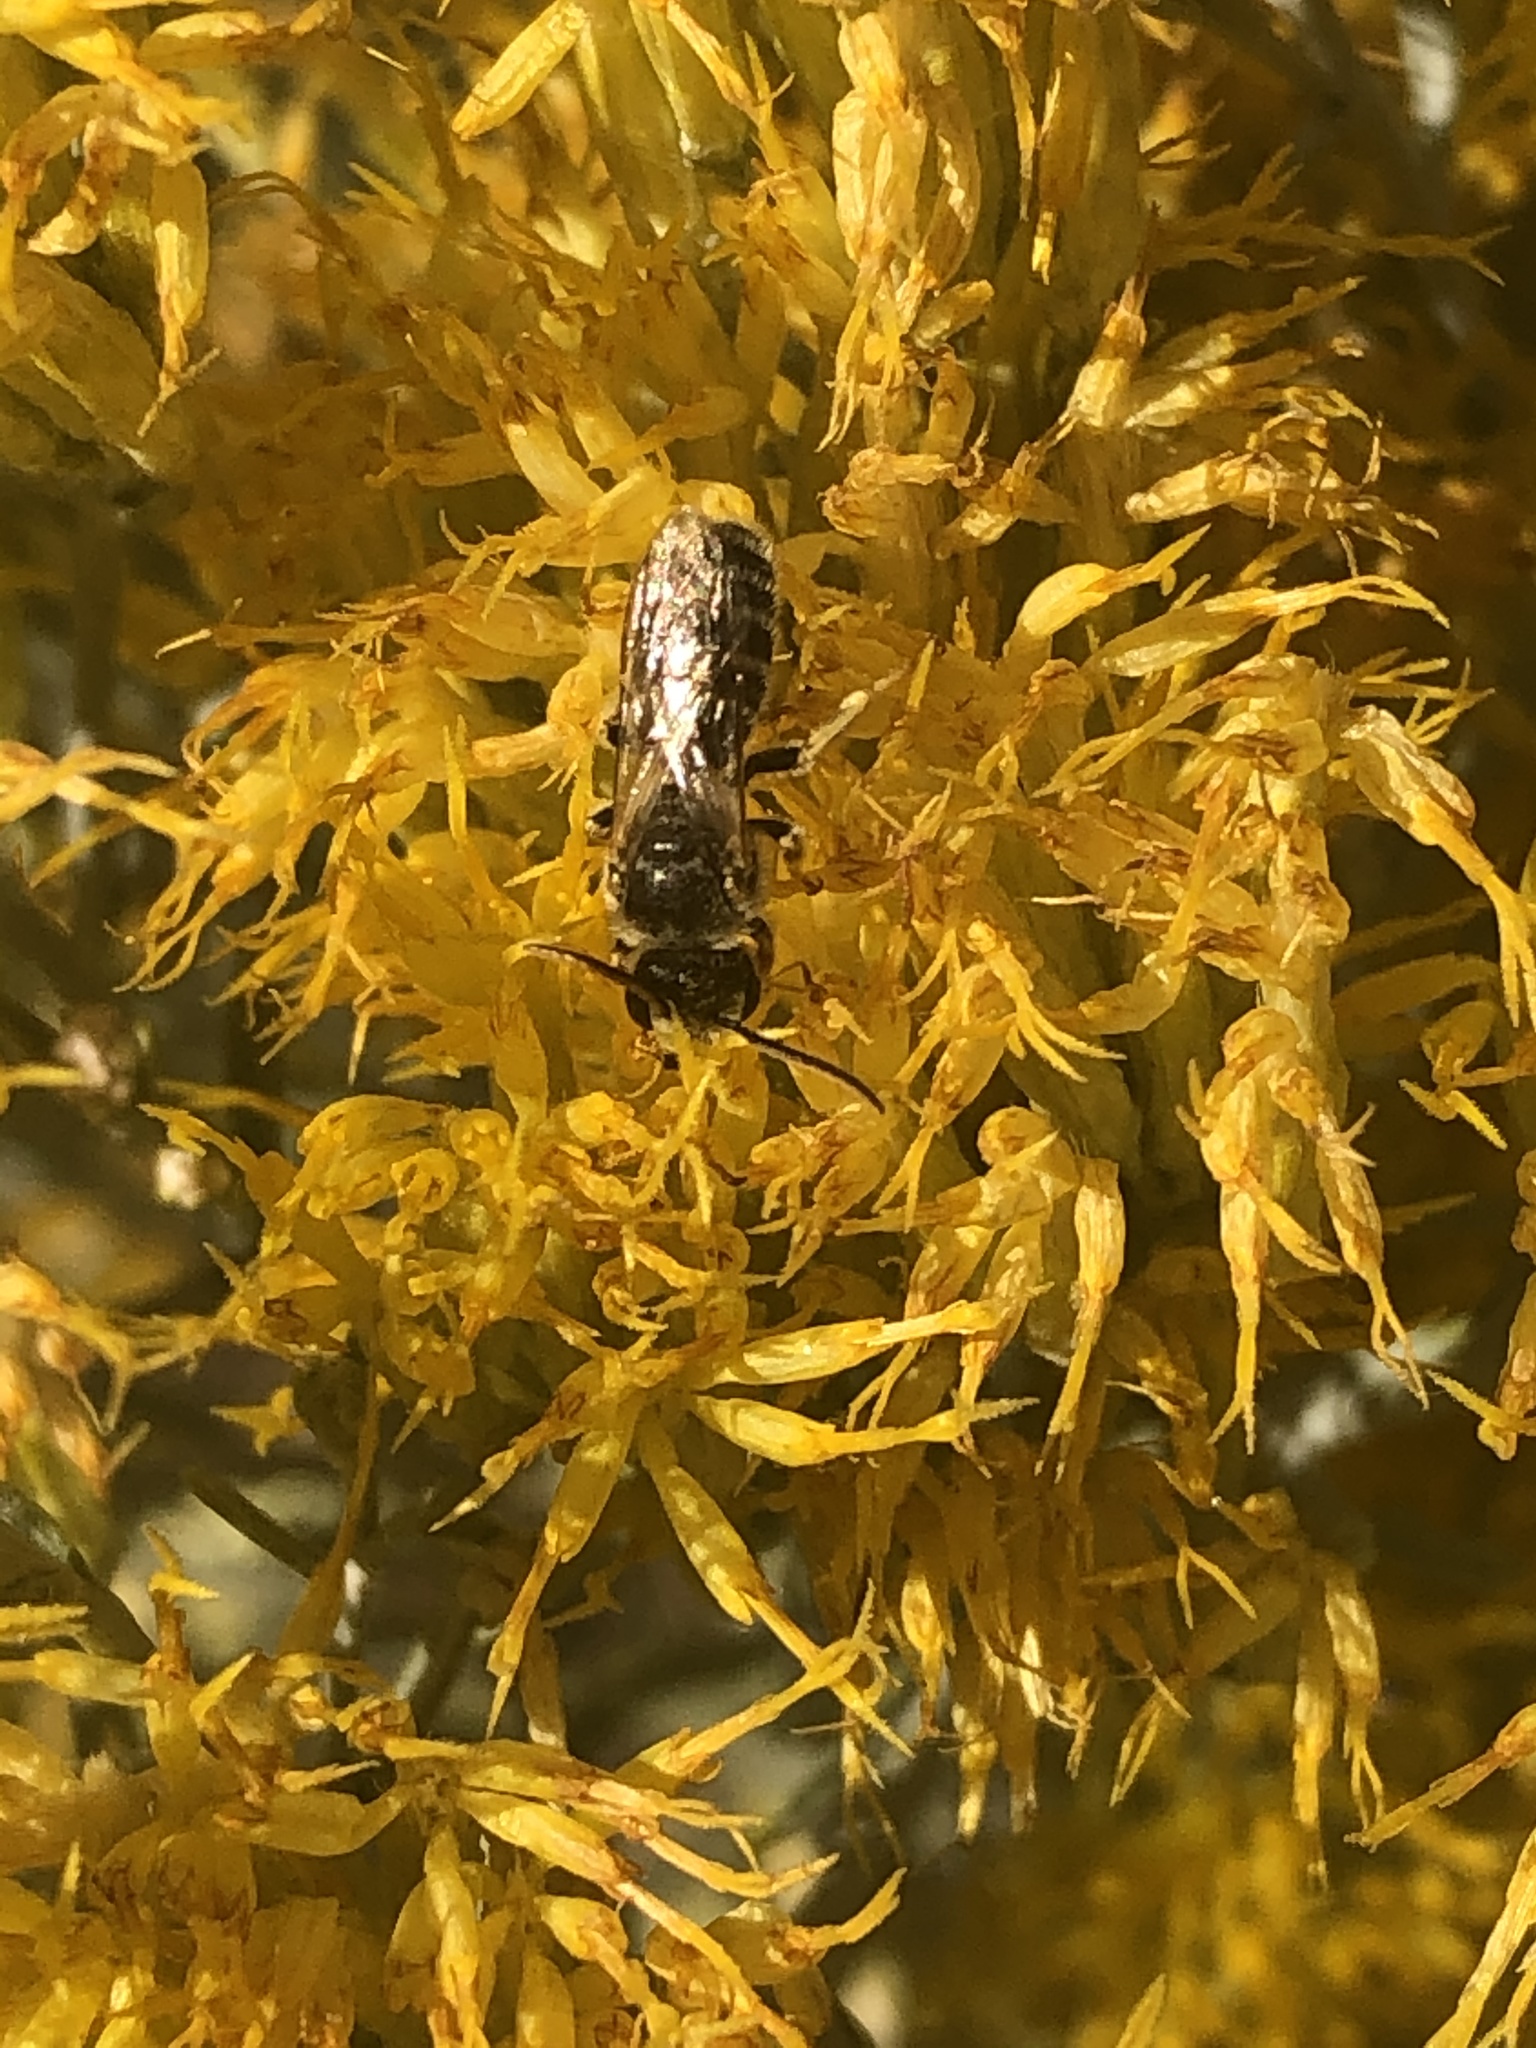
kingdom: Animalia
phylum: Arthropoda
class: Insecta
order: Hymenoptera
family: Halictidae
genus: Halictus
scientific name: Halictus ligatus
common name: Ligated furrow bee
